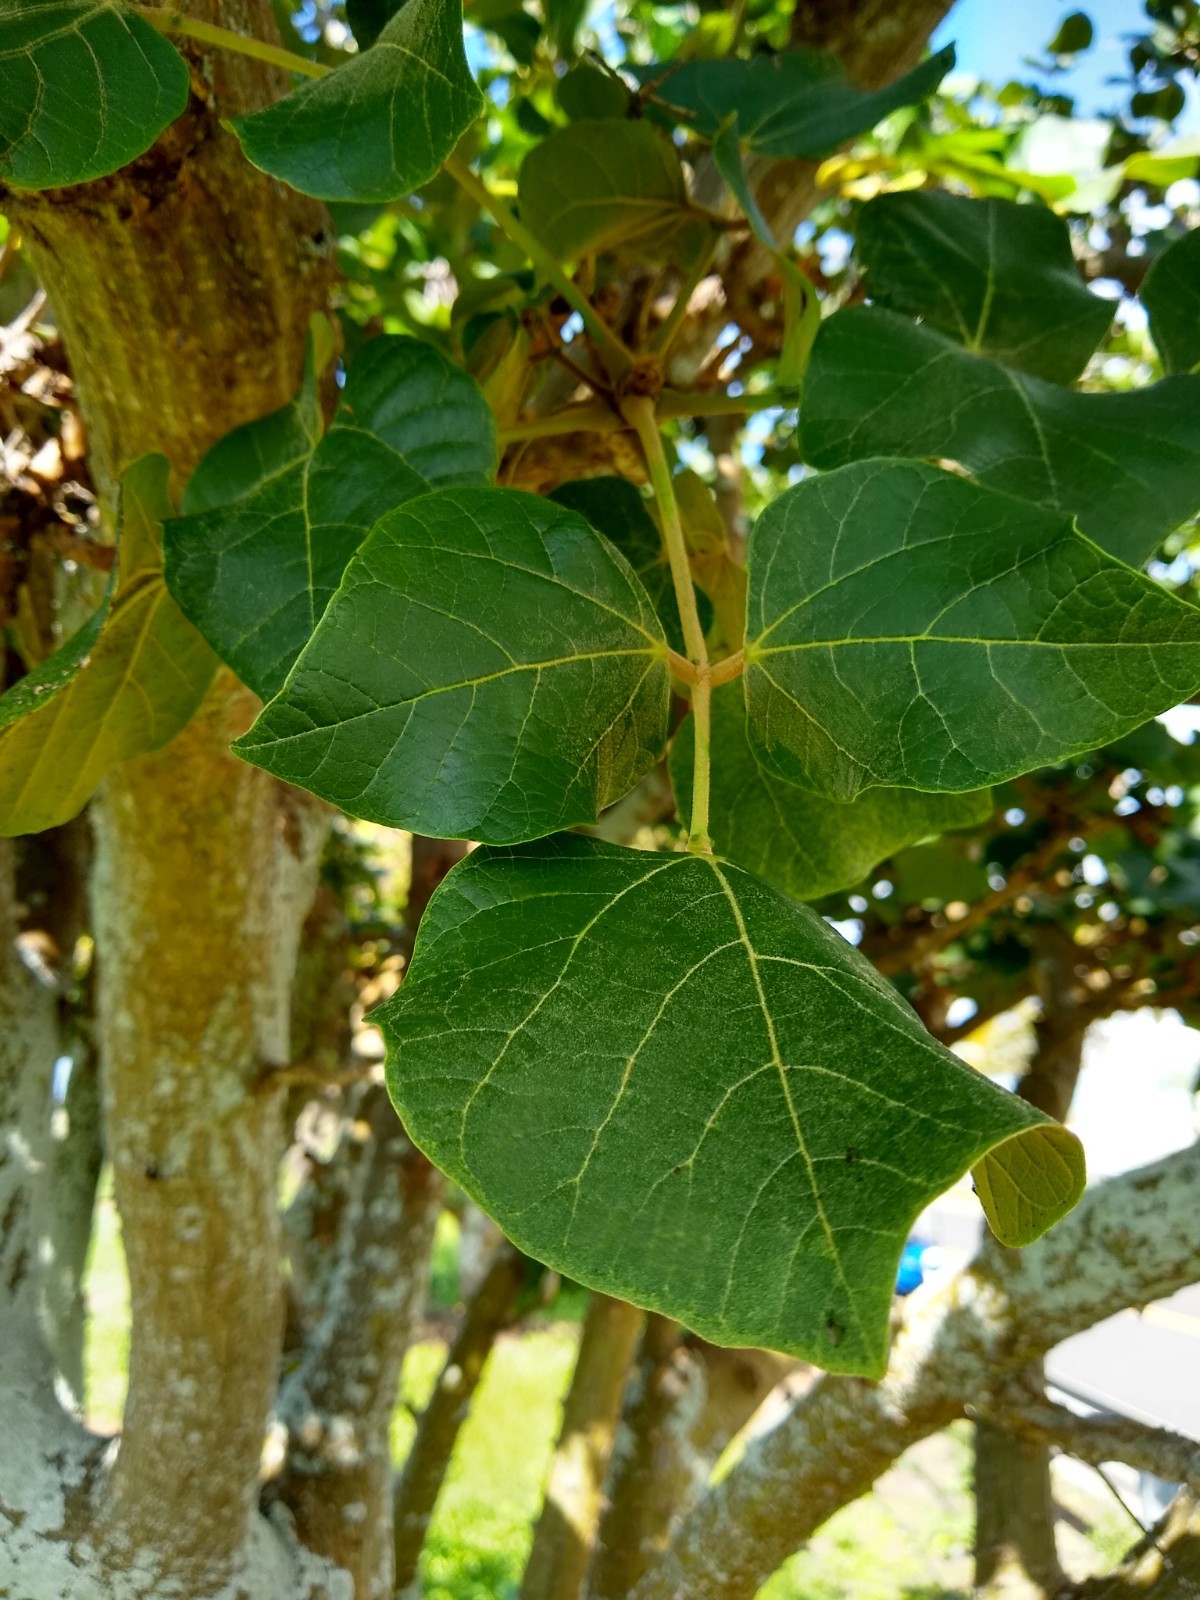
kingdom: Plantae
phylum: Tracheophyta
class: Magnoliopsida
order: Fabales
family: Fabaceae
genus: Erythrina
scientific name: Erythrina sandwicensis
